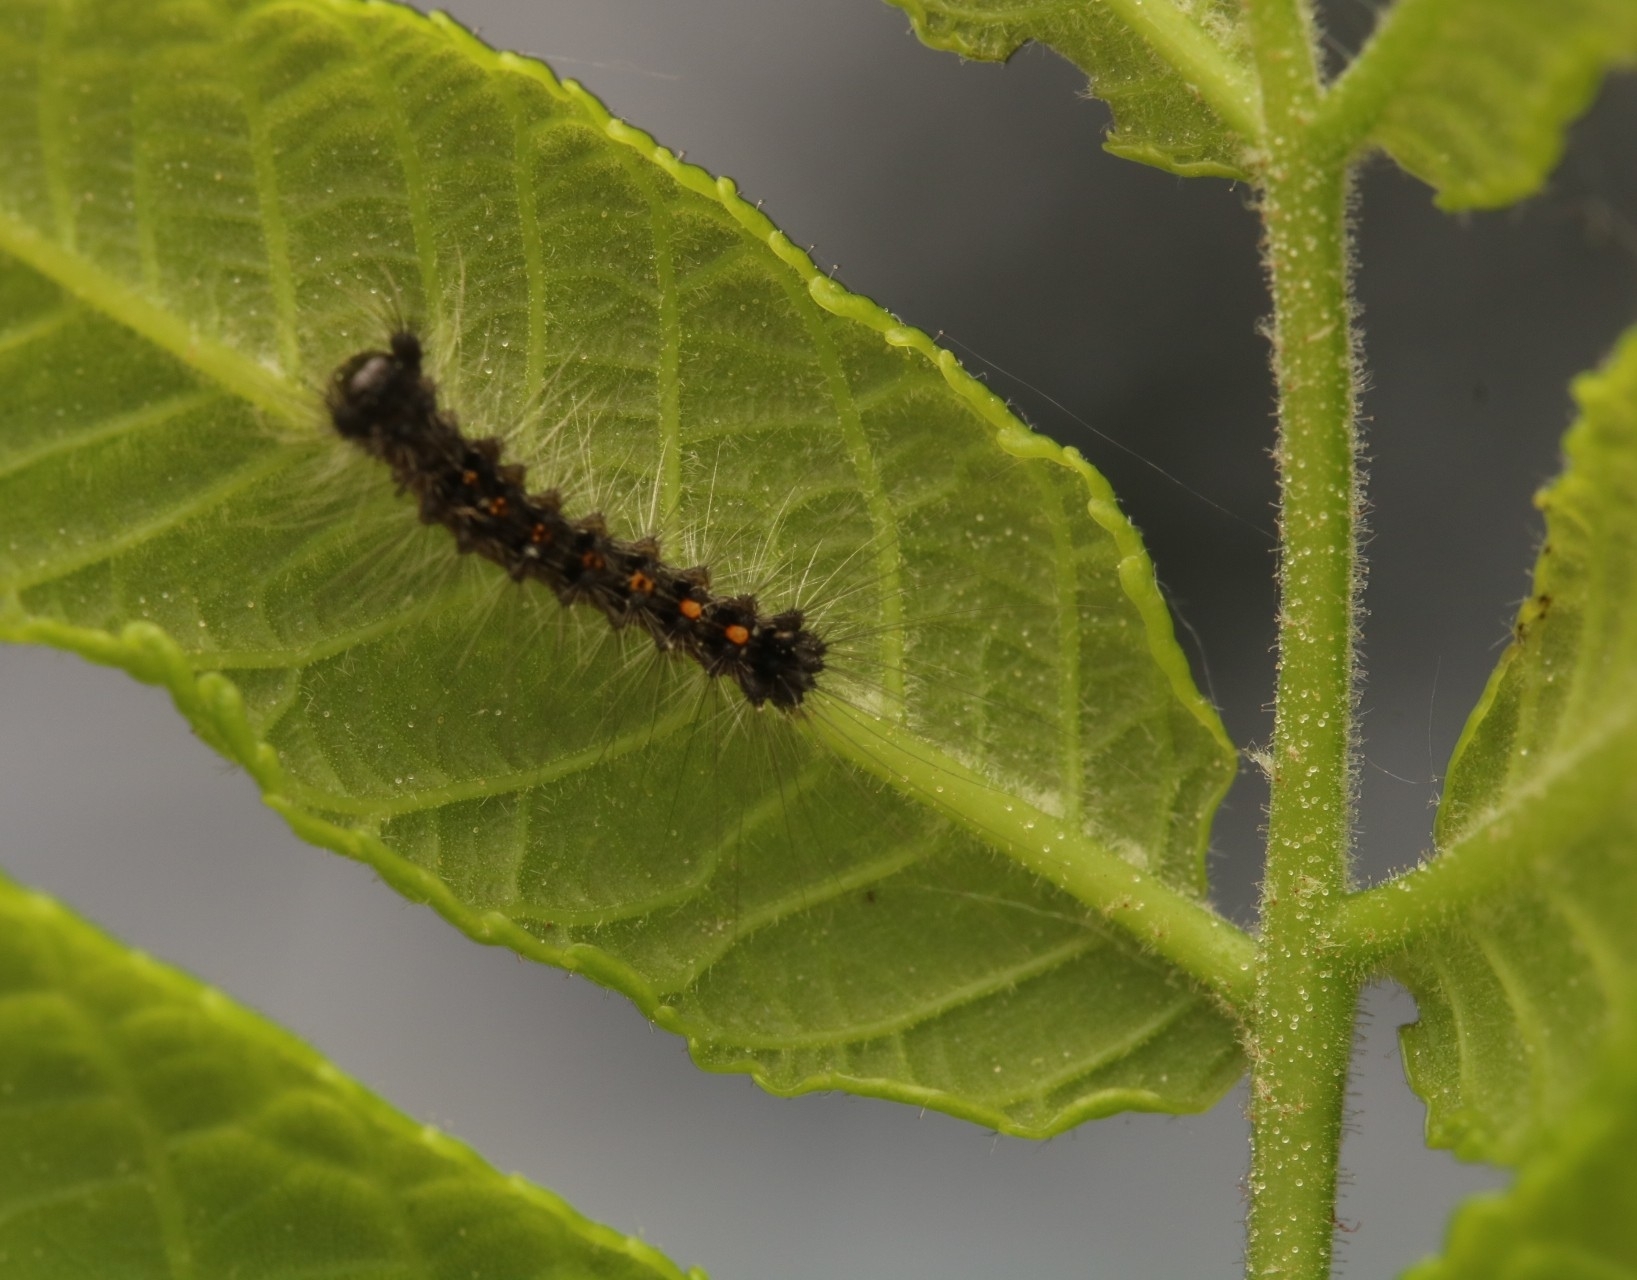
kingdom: Animalia
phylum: Arthropoda
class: Insecta
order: Lepidoptera
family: Erebidae
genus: Lymantria
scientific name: Lymantria dispar
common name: Gypsy moth
